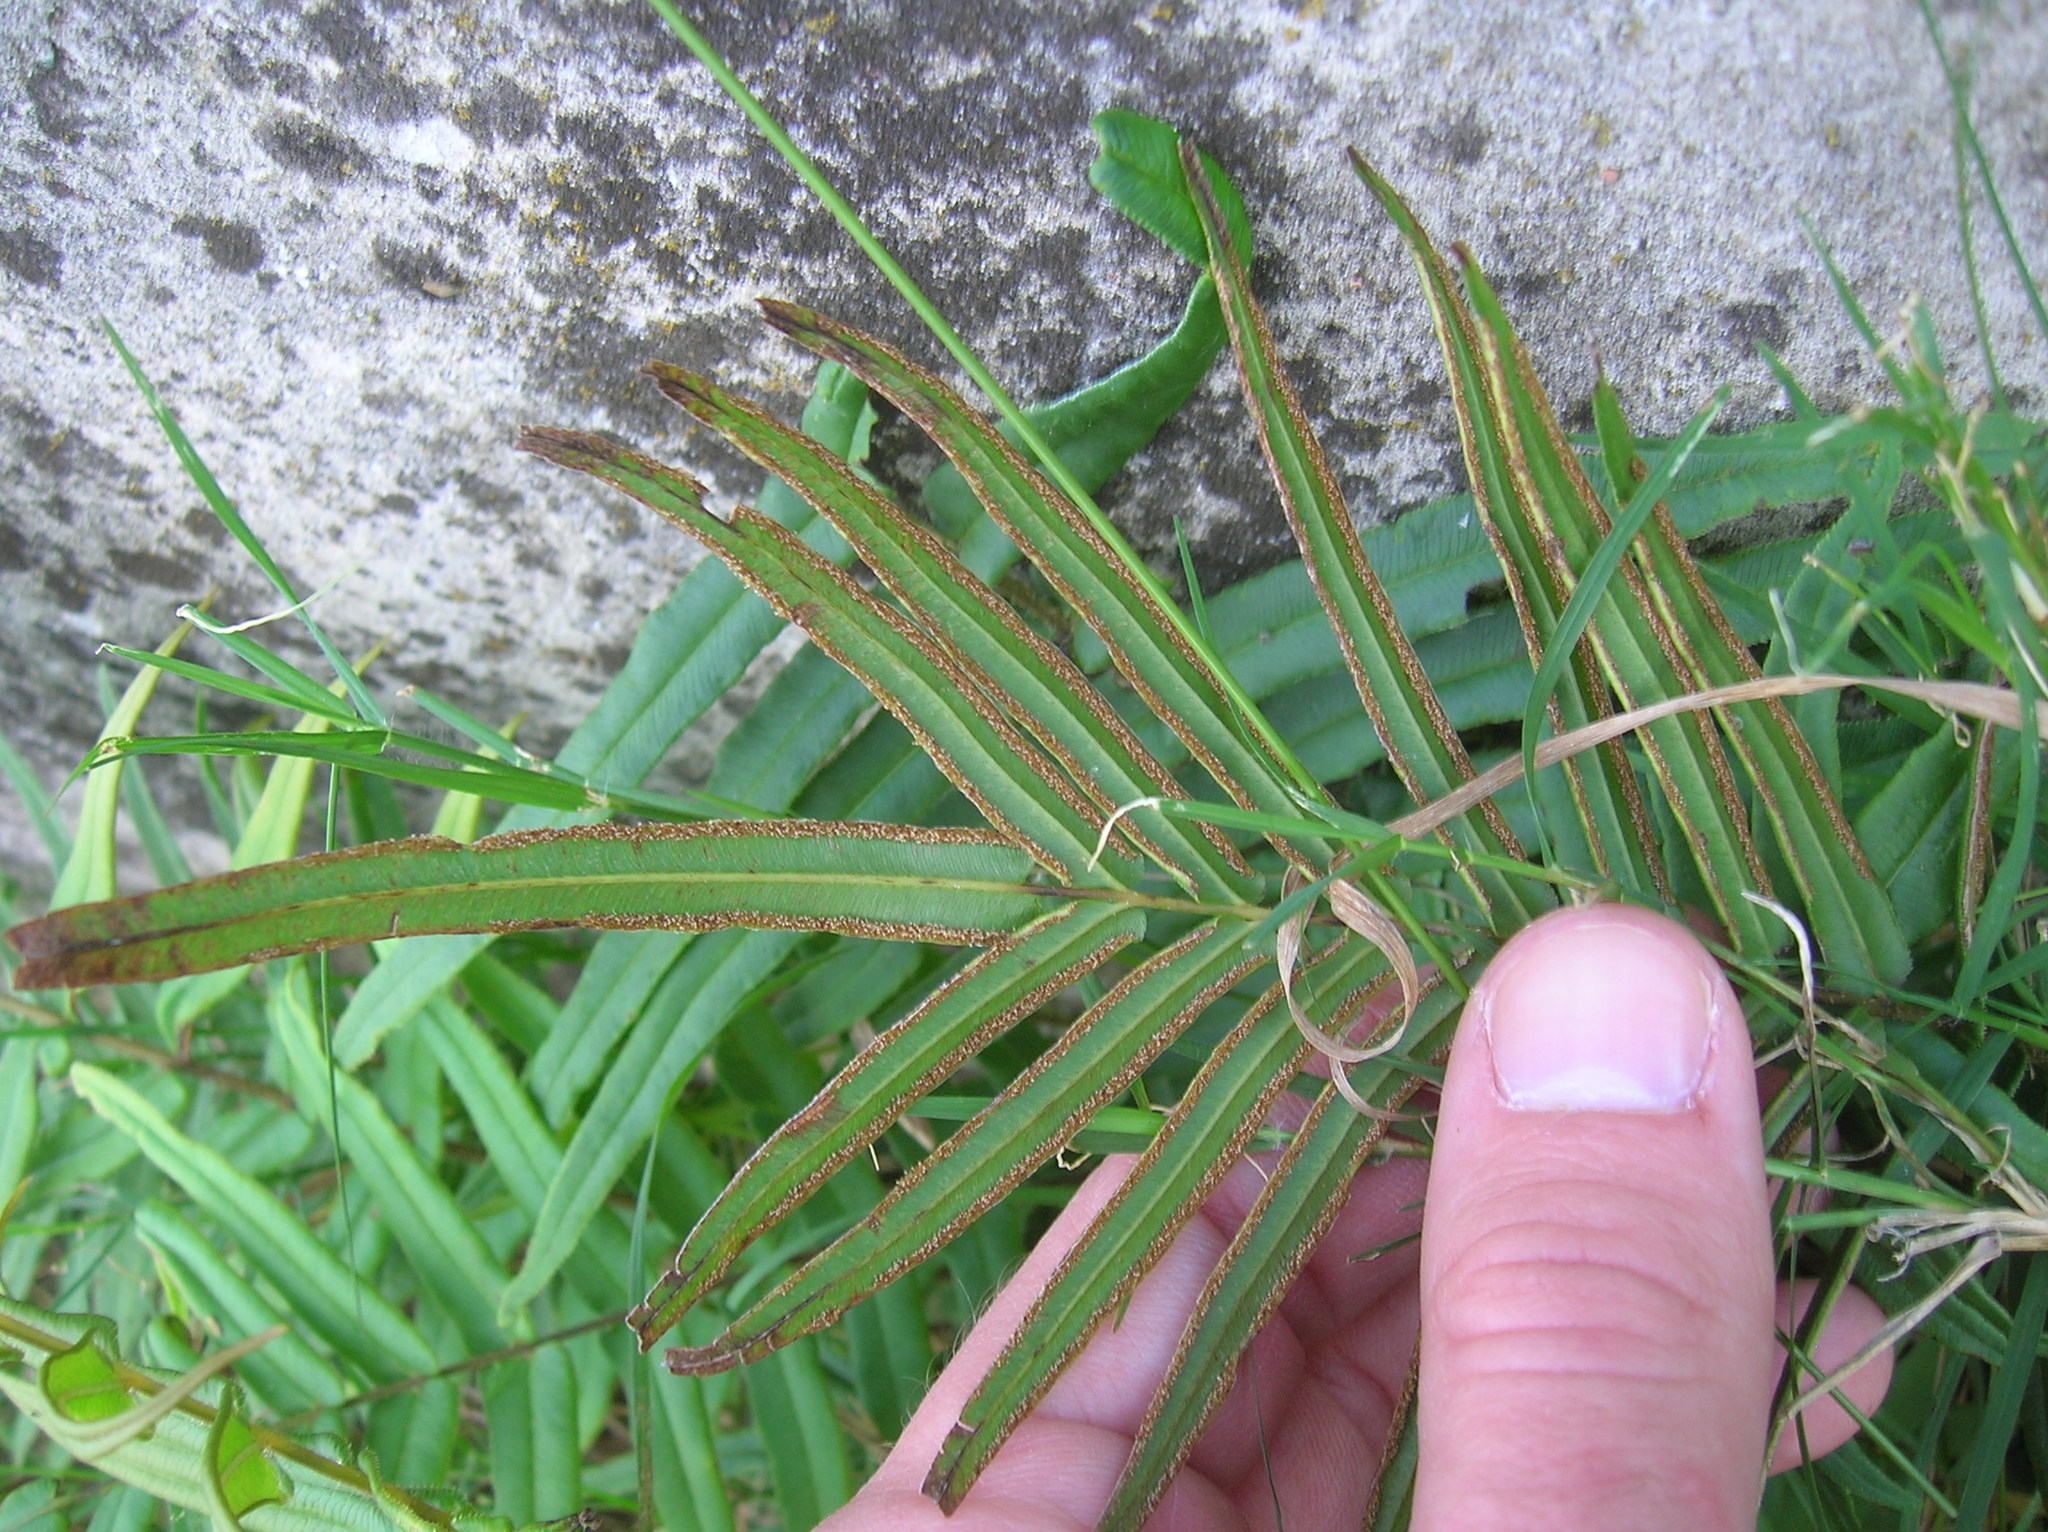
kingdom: Plantae
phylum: Tracheophyta
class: Polypodiopsida
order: Polypodiales
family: Pteridaceae
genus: Pteris
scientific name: Pteris vittata
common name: Ladder brake
